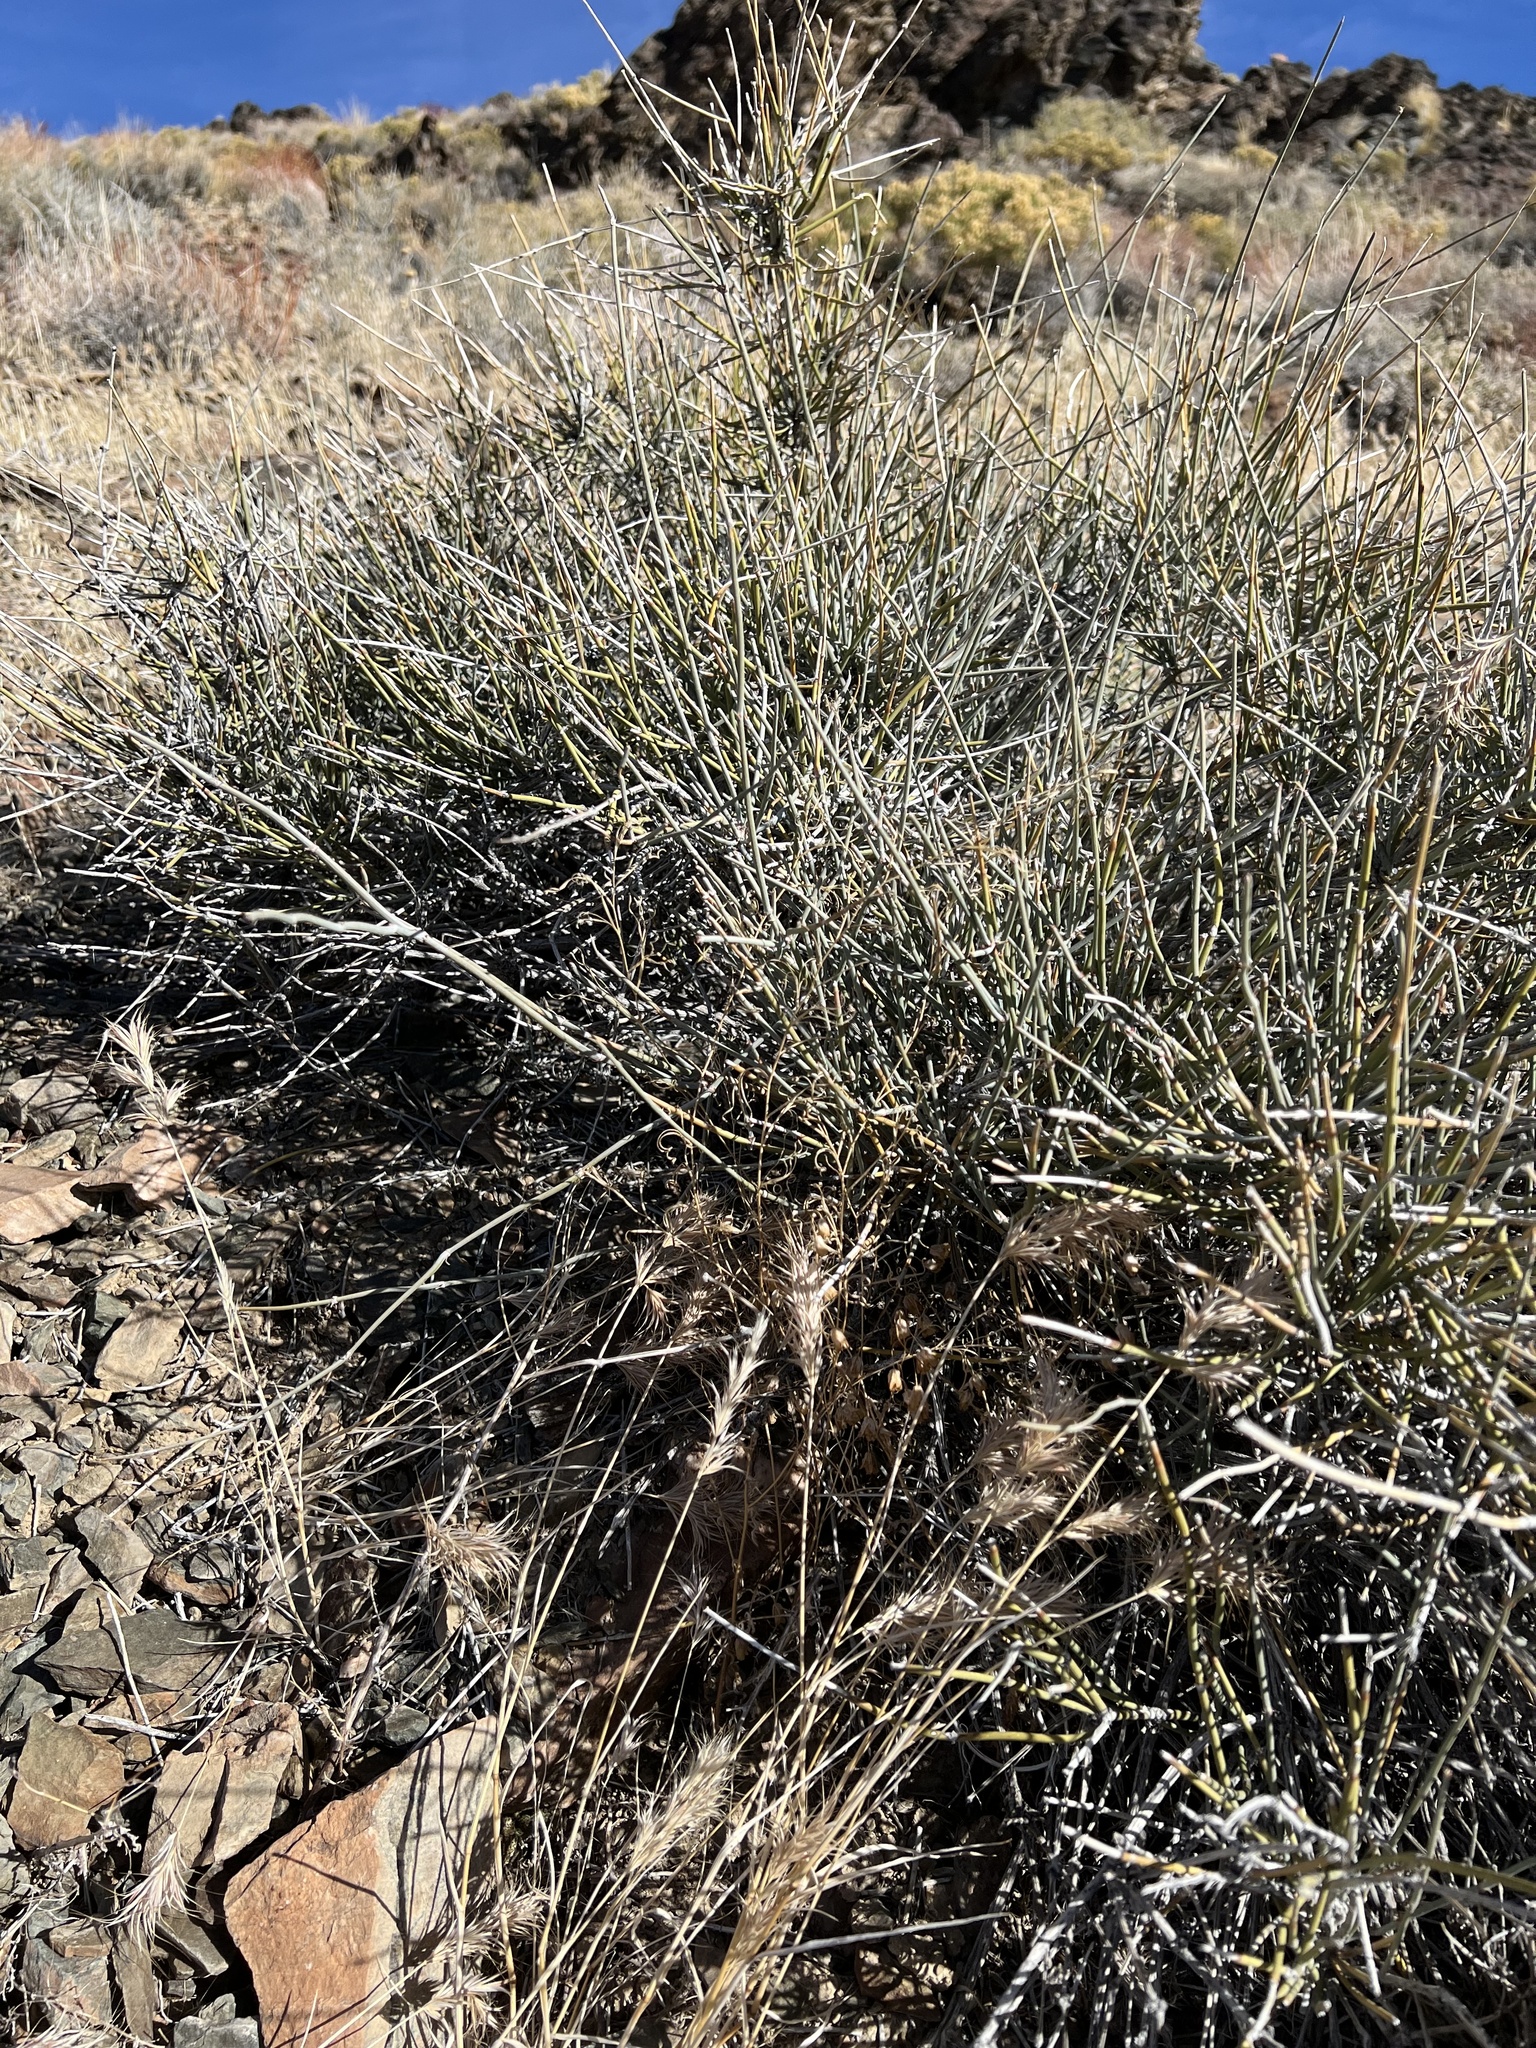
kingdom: Plantae
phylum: Tracheophyta
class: Gnetopsida
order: Ephedrales
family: Ephedraceae
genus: Ephedra
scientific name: Ephedra nevadensis
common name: Gray ephedra
